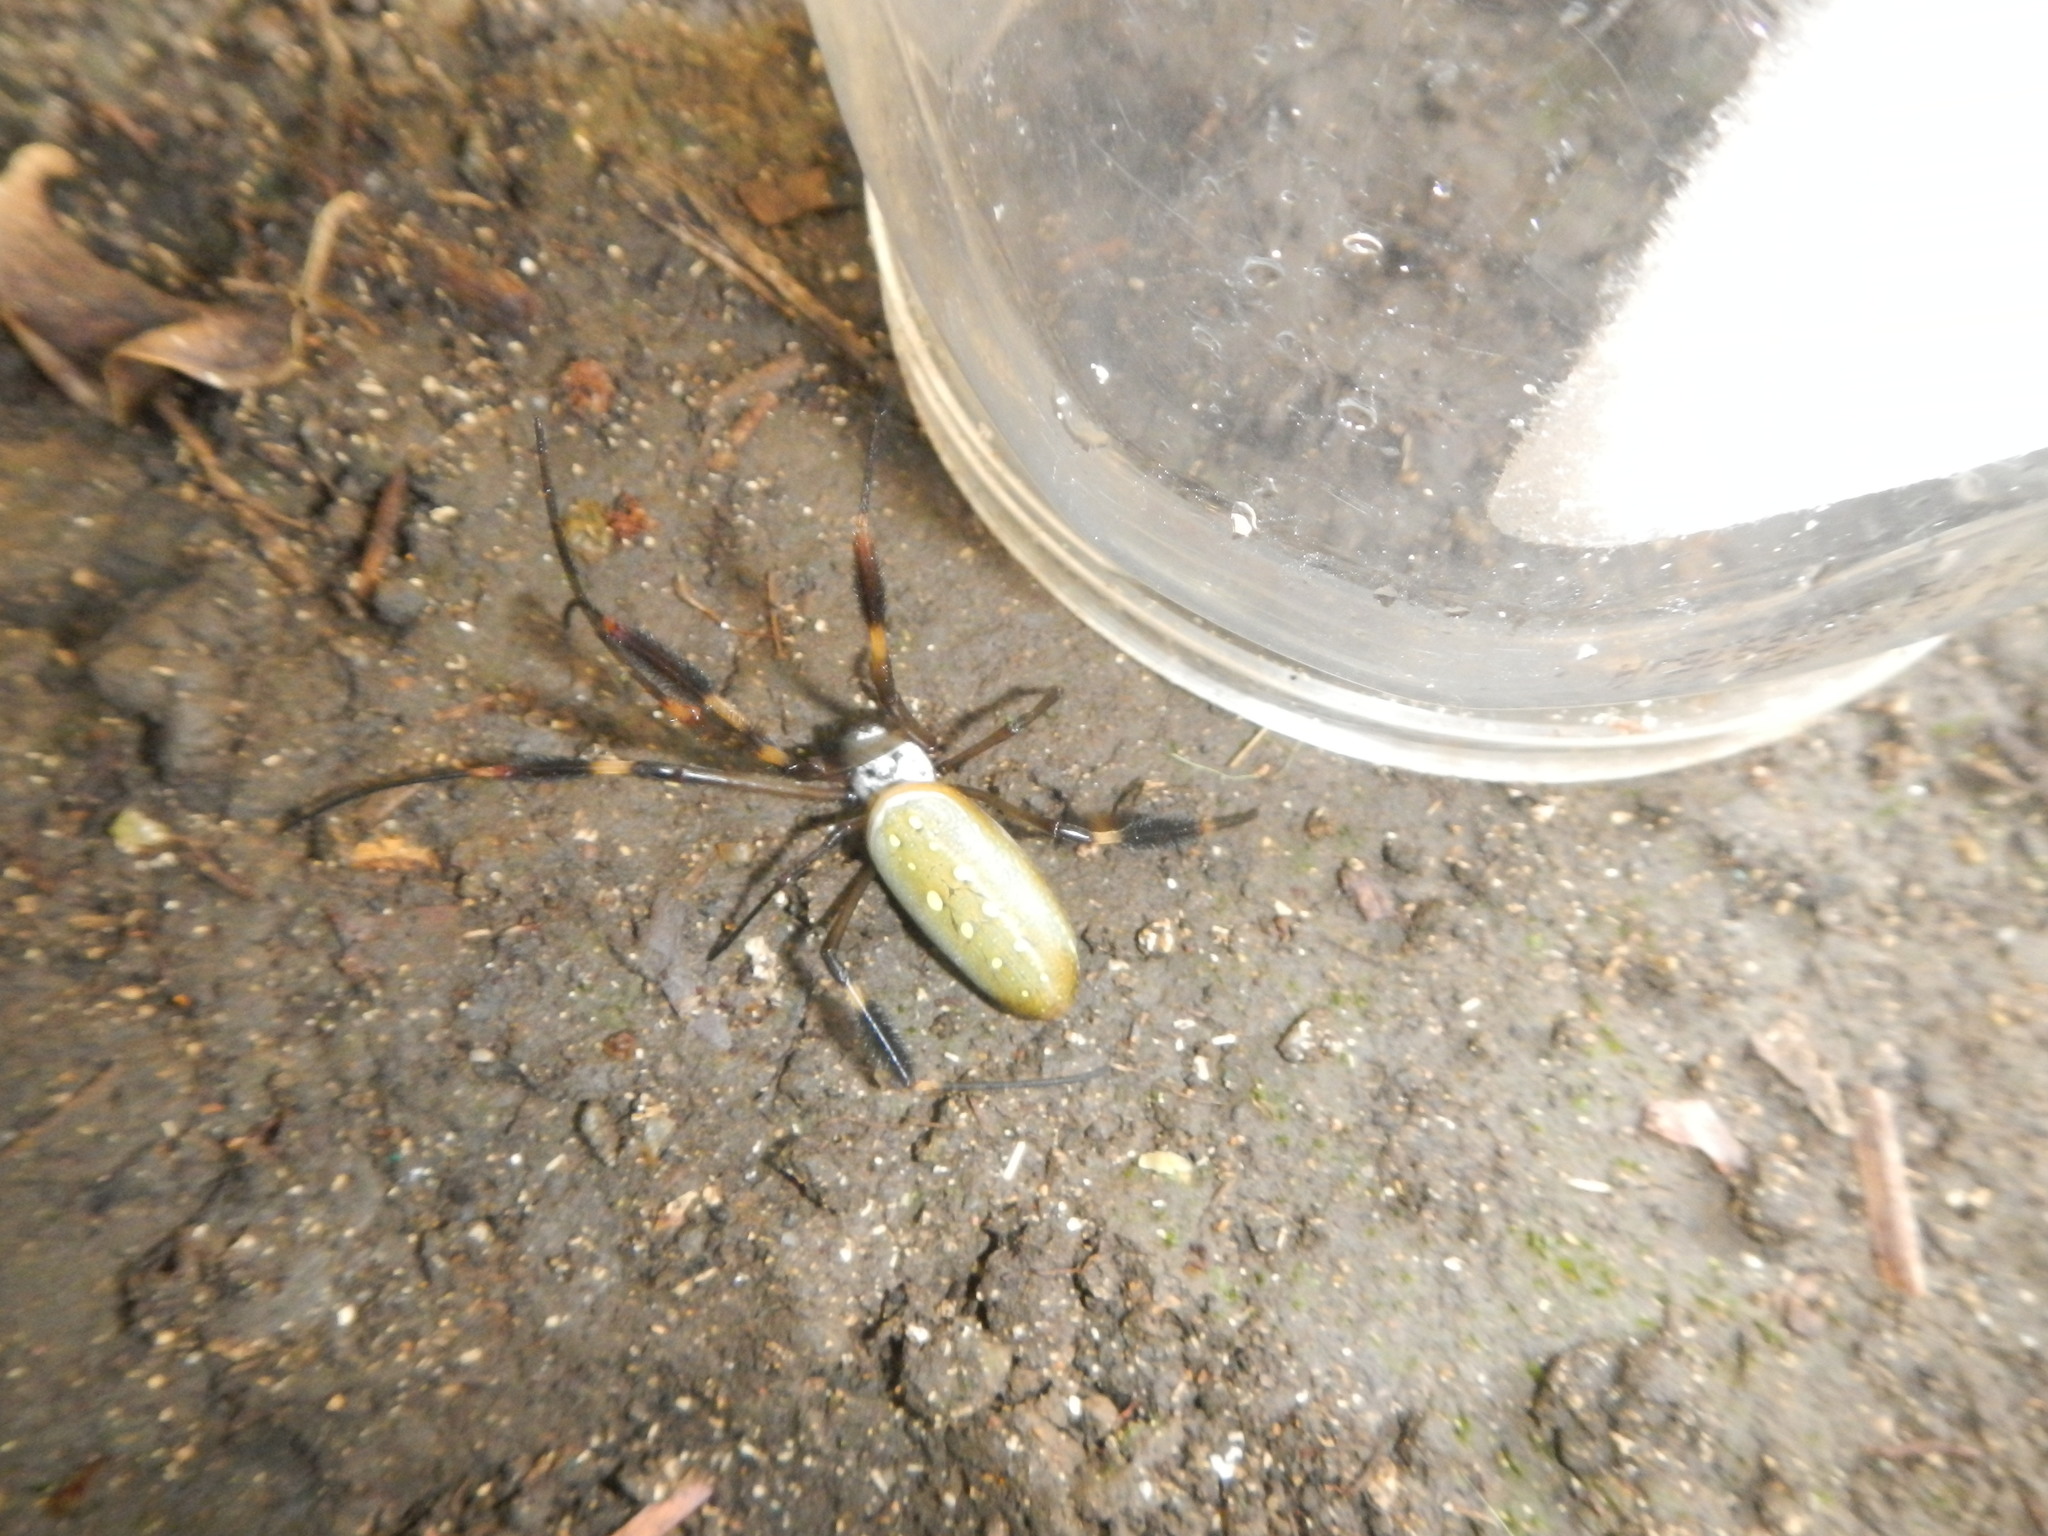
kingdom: Animalia
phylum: Arthropoda
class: Arachnida
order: Araneae
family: Araneidae
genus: Trichonephila
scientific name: Trichonephila clavipes
